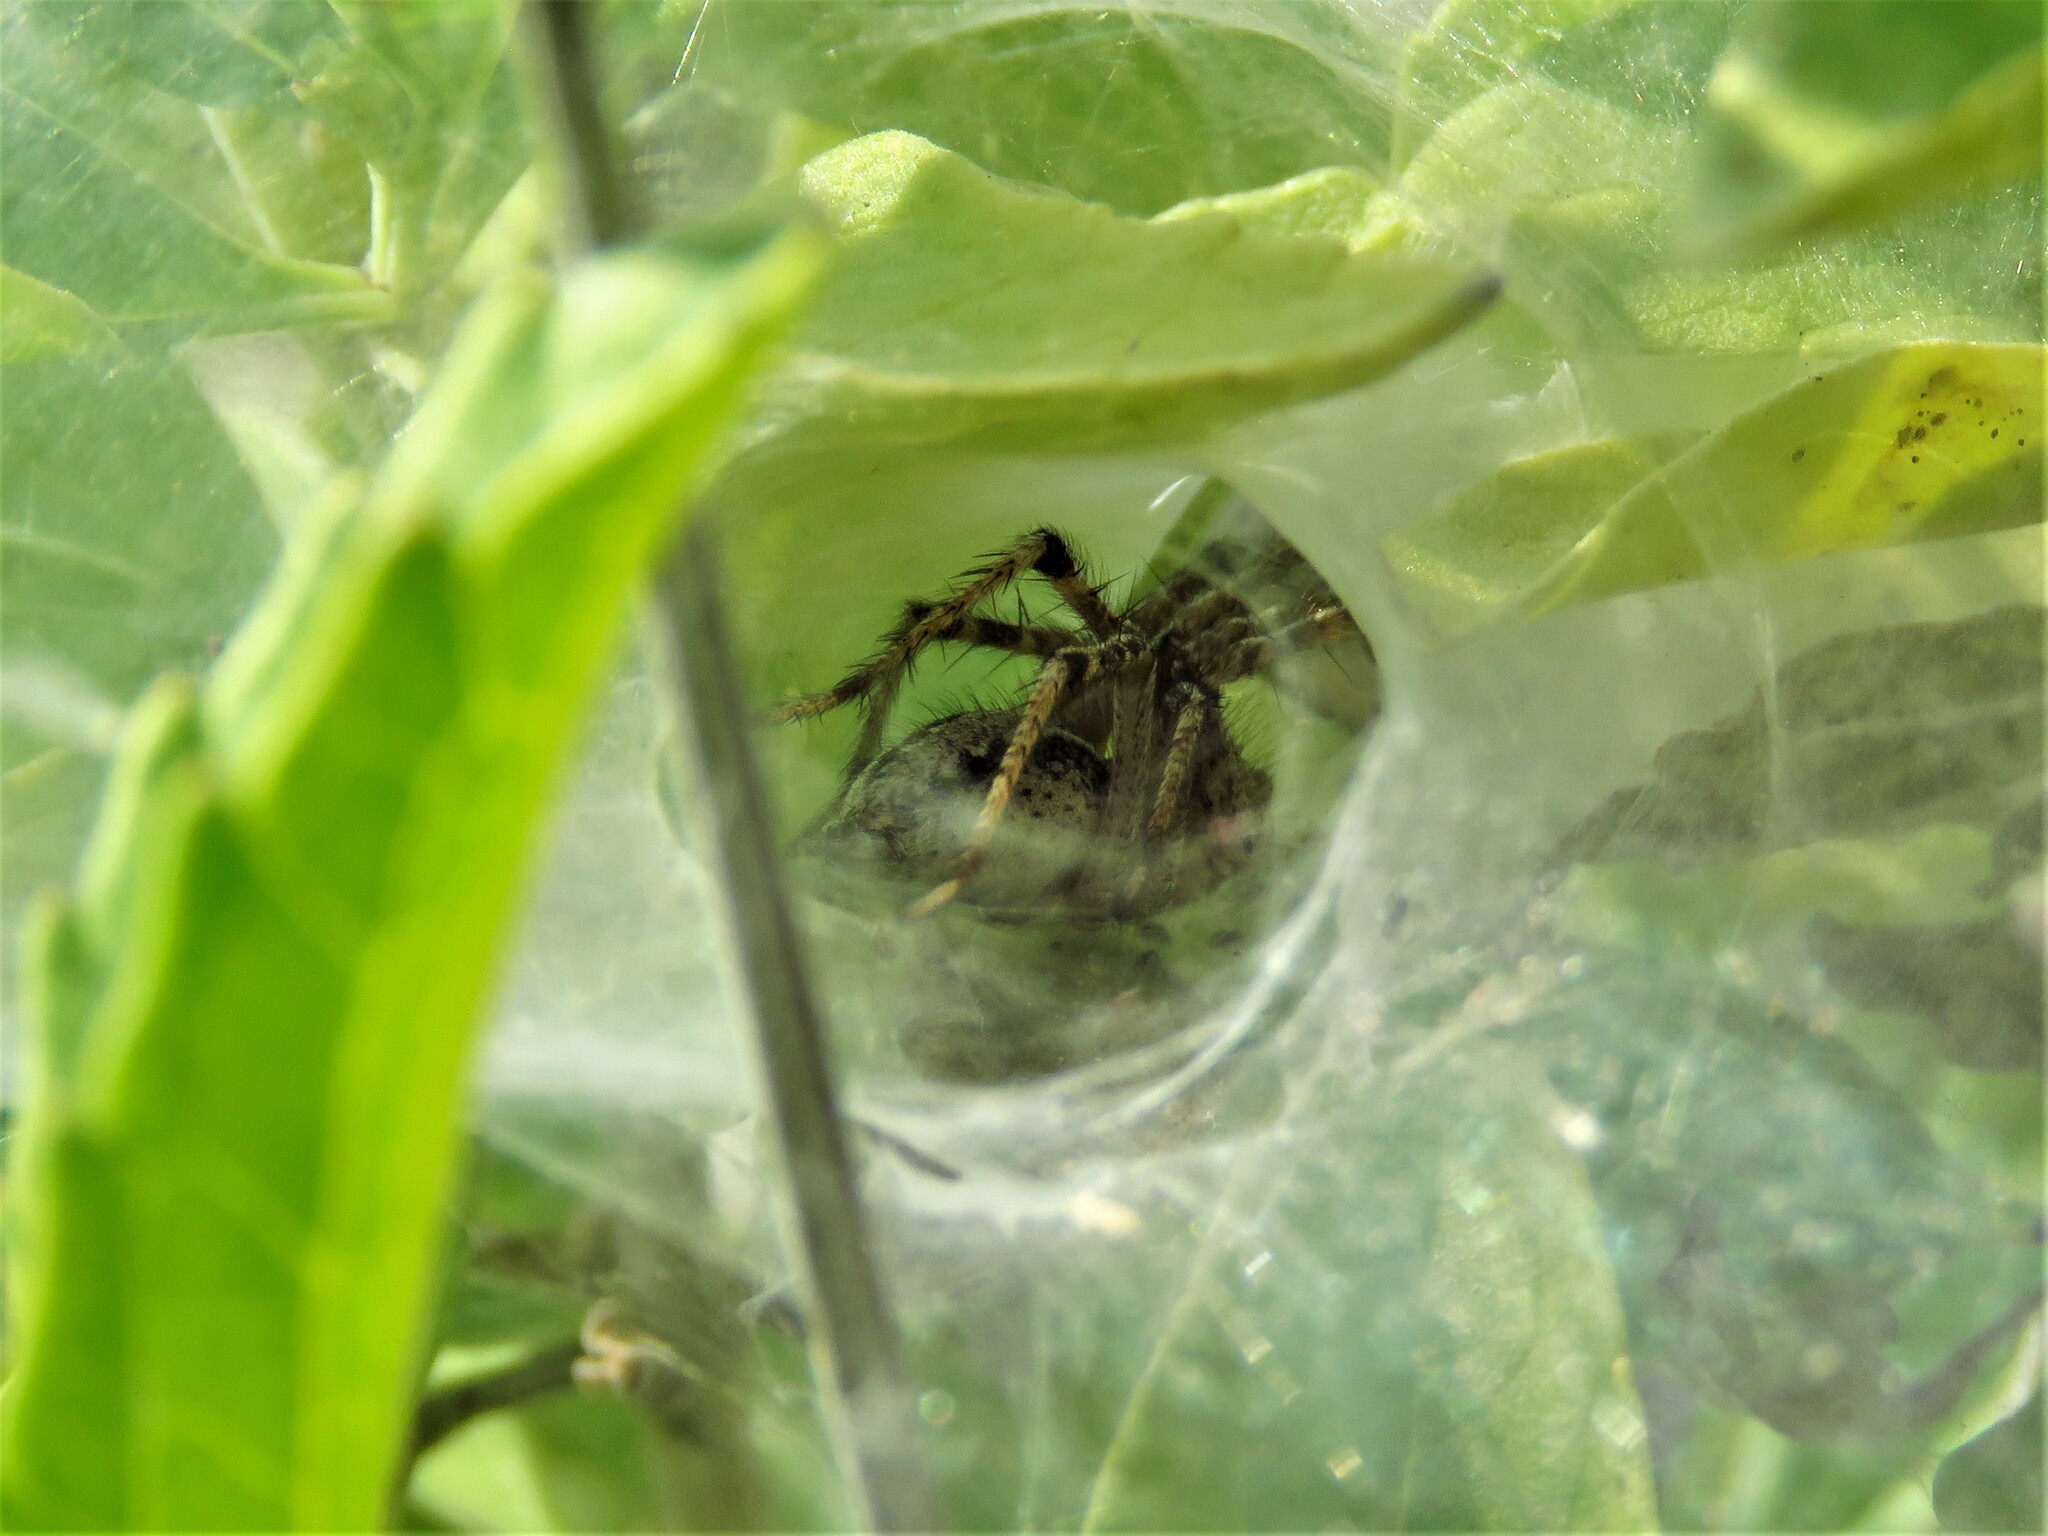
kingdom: Animalia
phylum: Arthropoda
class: Arachnida
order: Araneae
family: Agelenidae
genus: Agelenopsis
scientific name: Agelenopsis
